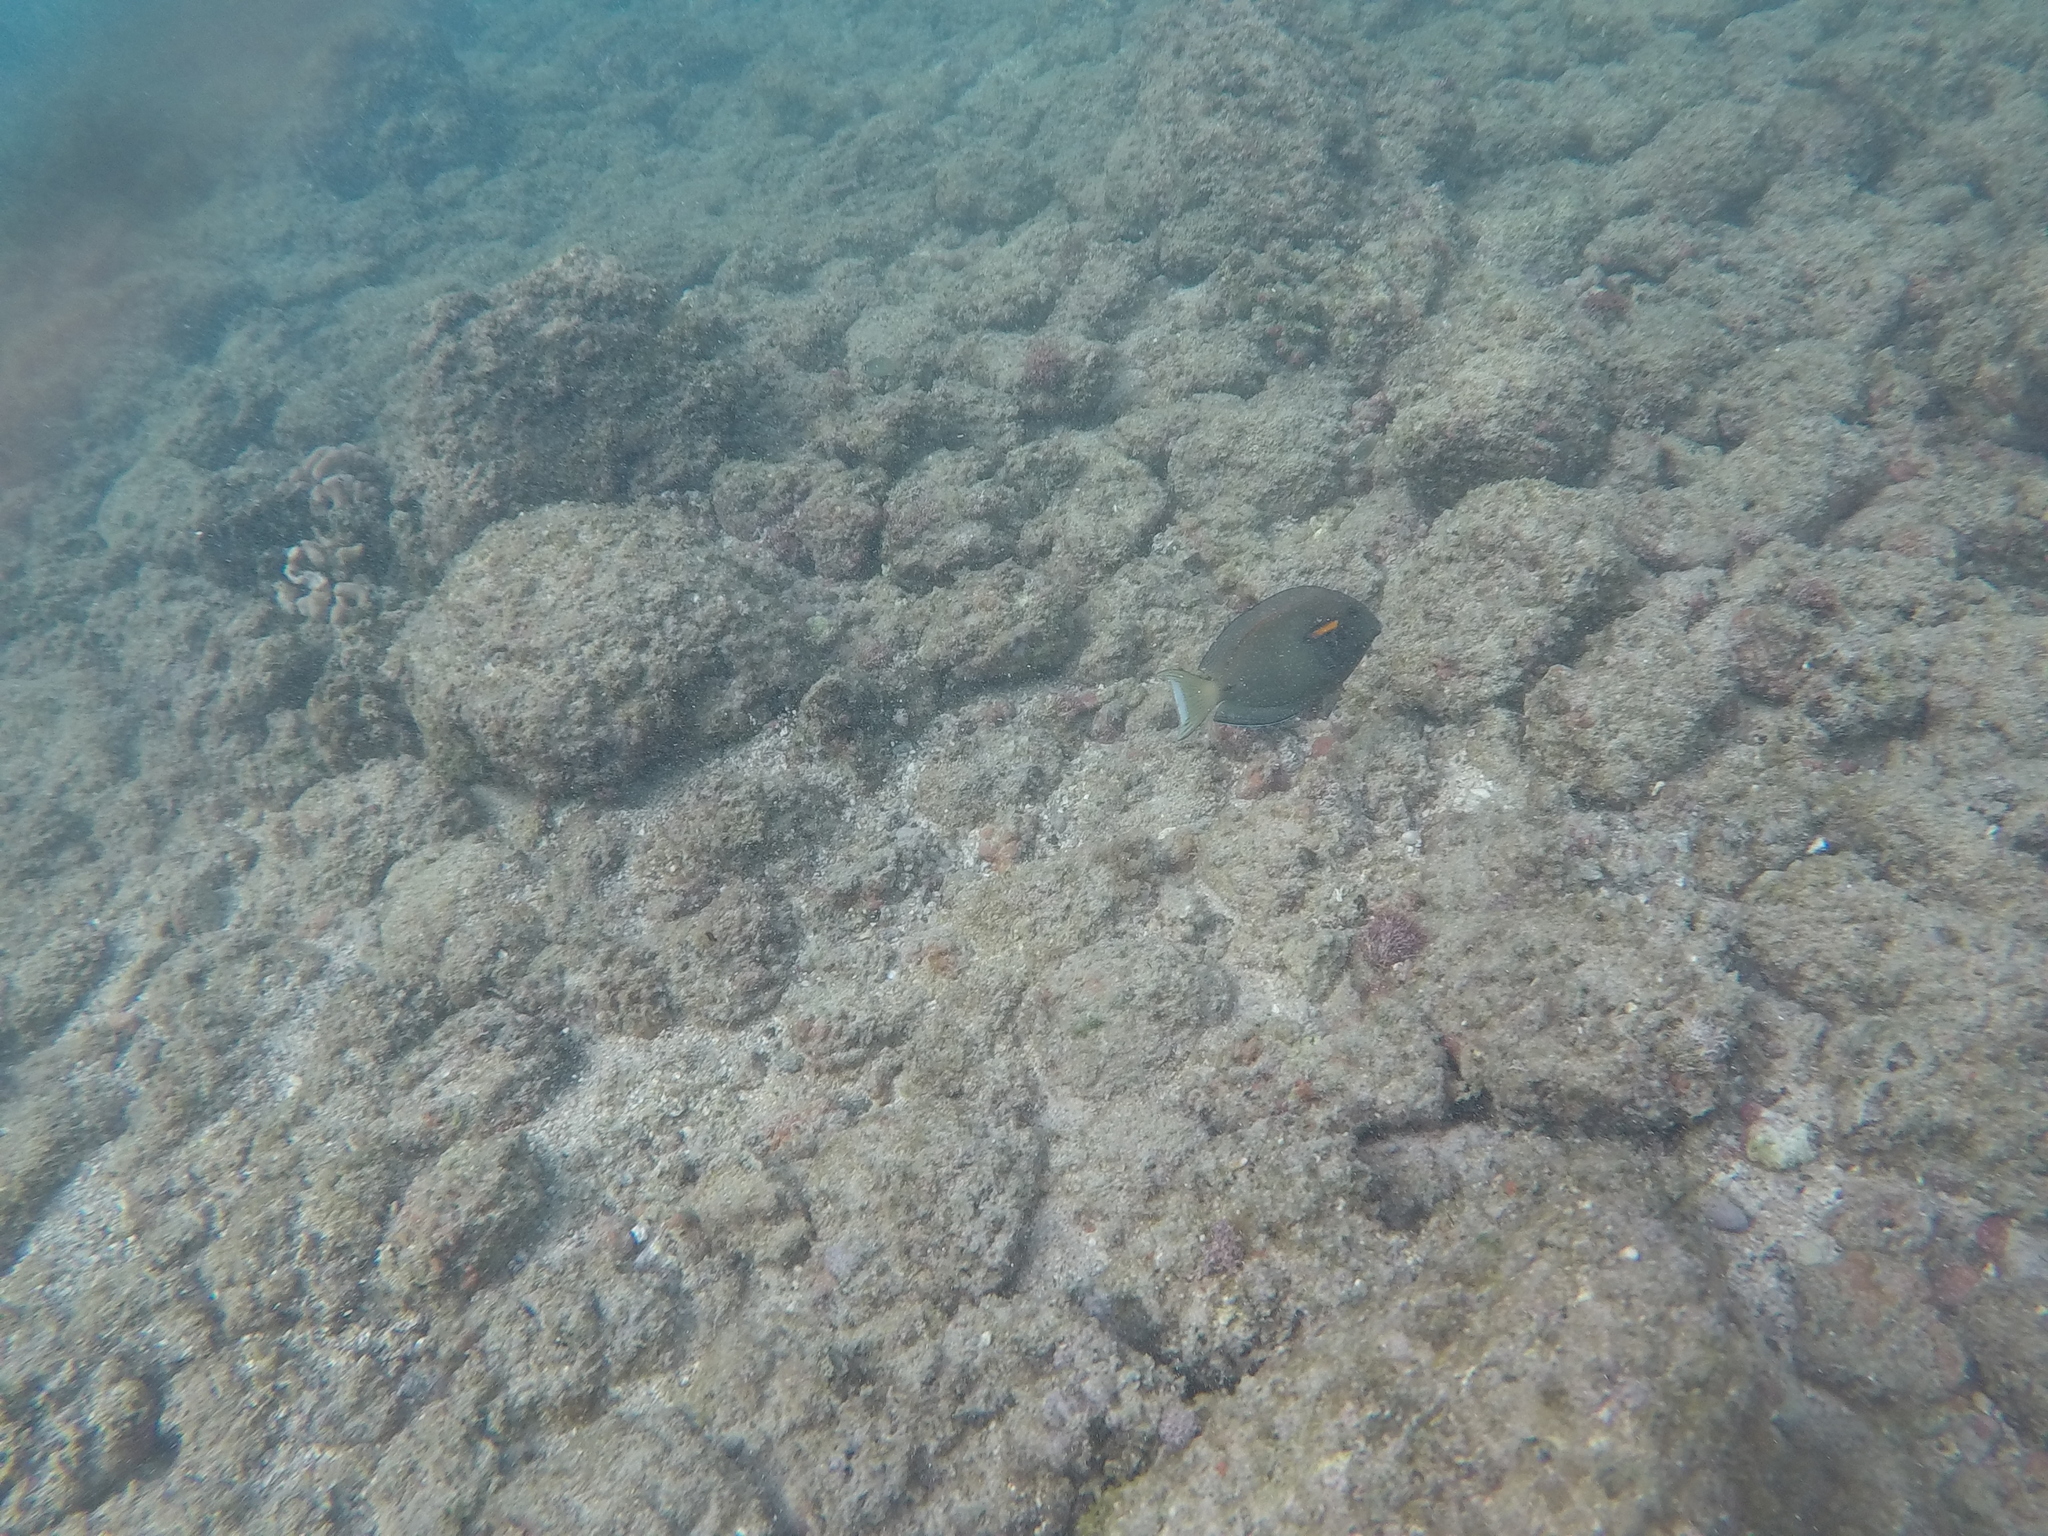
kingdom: Animalia
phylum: Chordata
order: Perciformes
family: Acanthuridae
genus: Acanthurus
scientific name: Acanthurus olivaceus
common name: Gendarme fish
